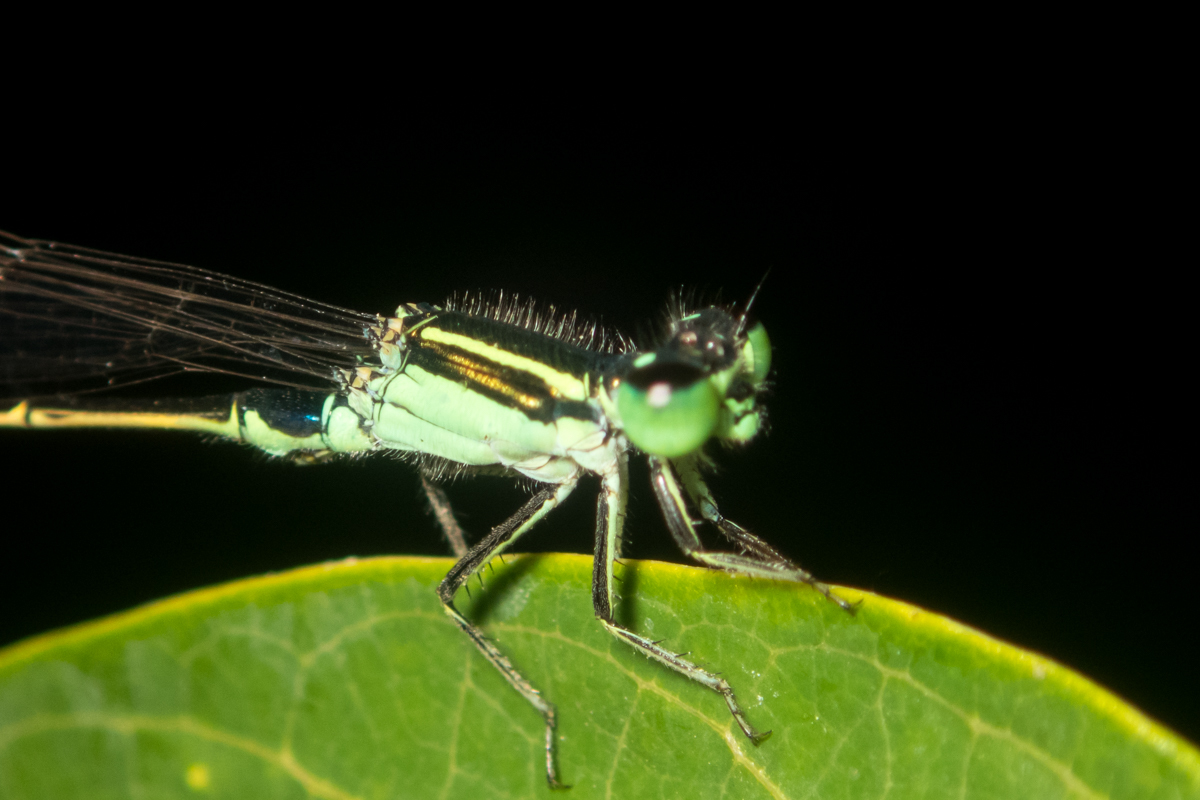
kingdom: Animalia
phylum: Arthropoda
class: Insecta
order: Odonata
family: Coenagrionidae
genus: Ischnura
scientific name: Ischnura senegalensis
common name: Tropical bluetail
